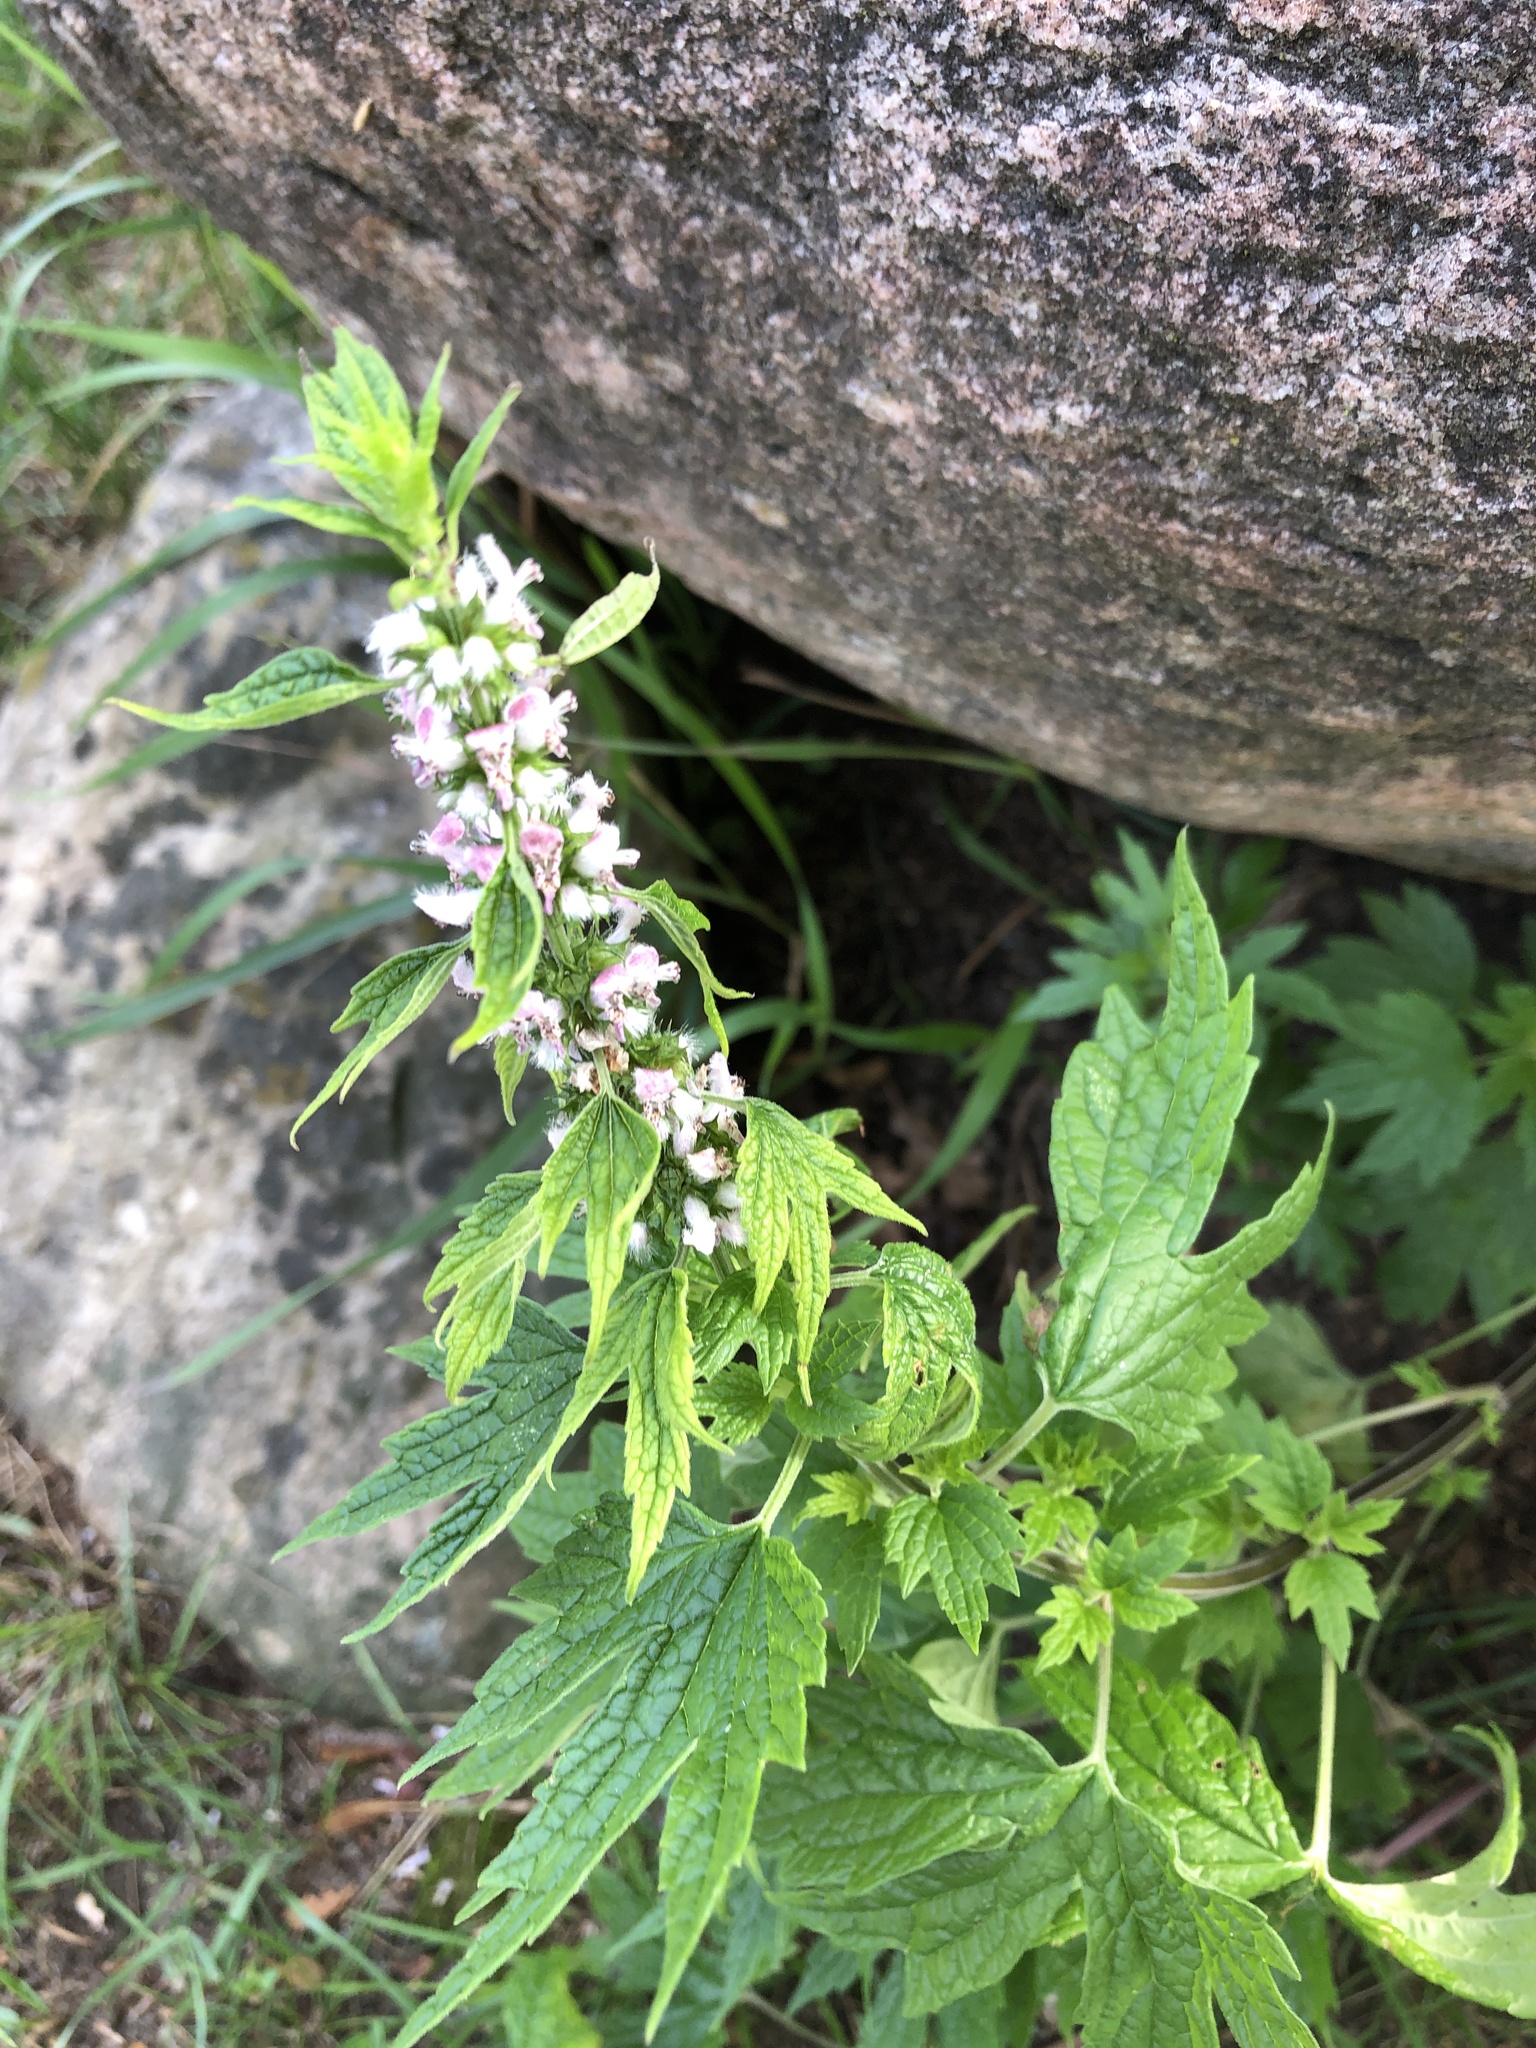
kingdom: Plantae
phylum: Tracheophyta
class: Magnoliopsida
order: Lamiales
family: Lamiaceae
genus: Leonurus
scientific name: Leonurus cardiaca
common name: Motherwort
